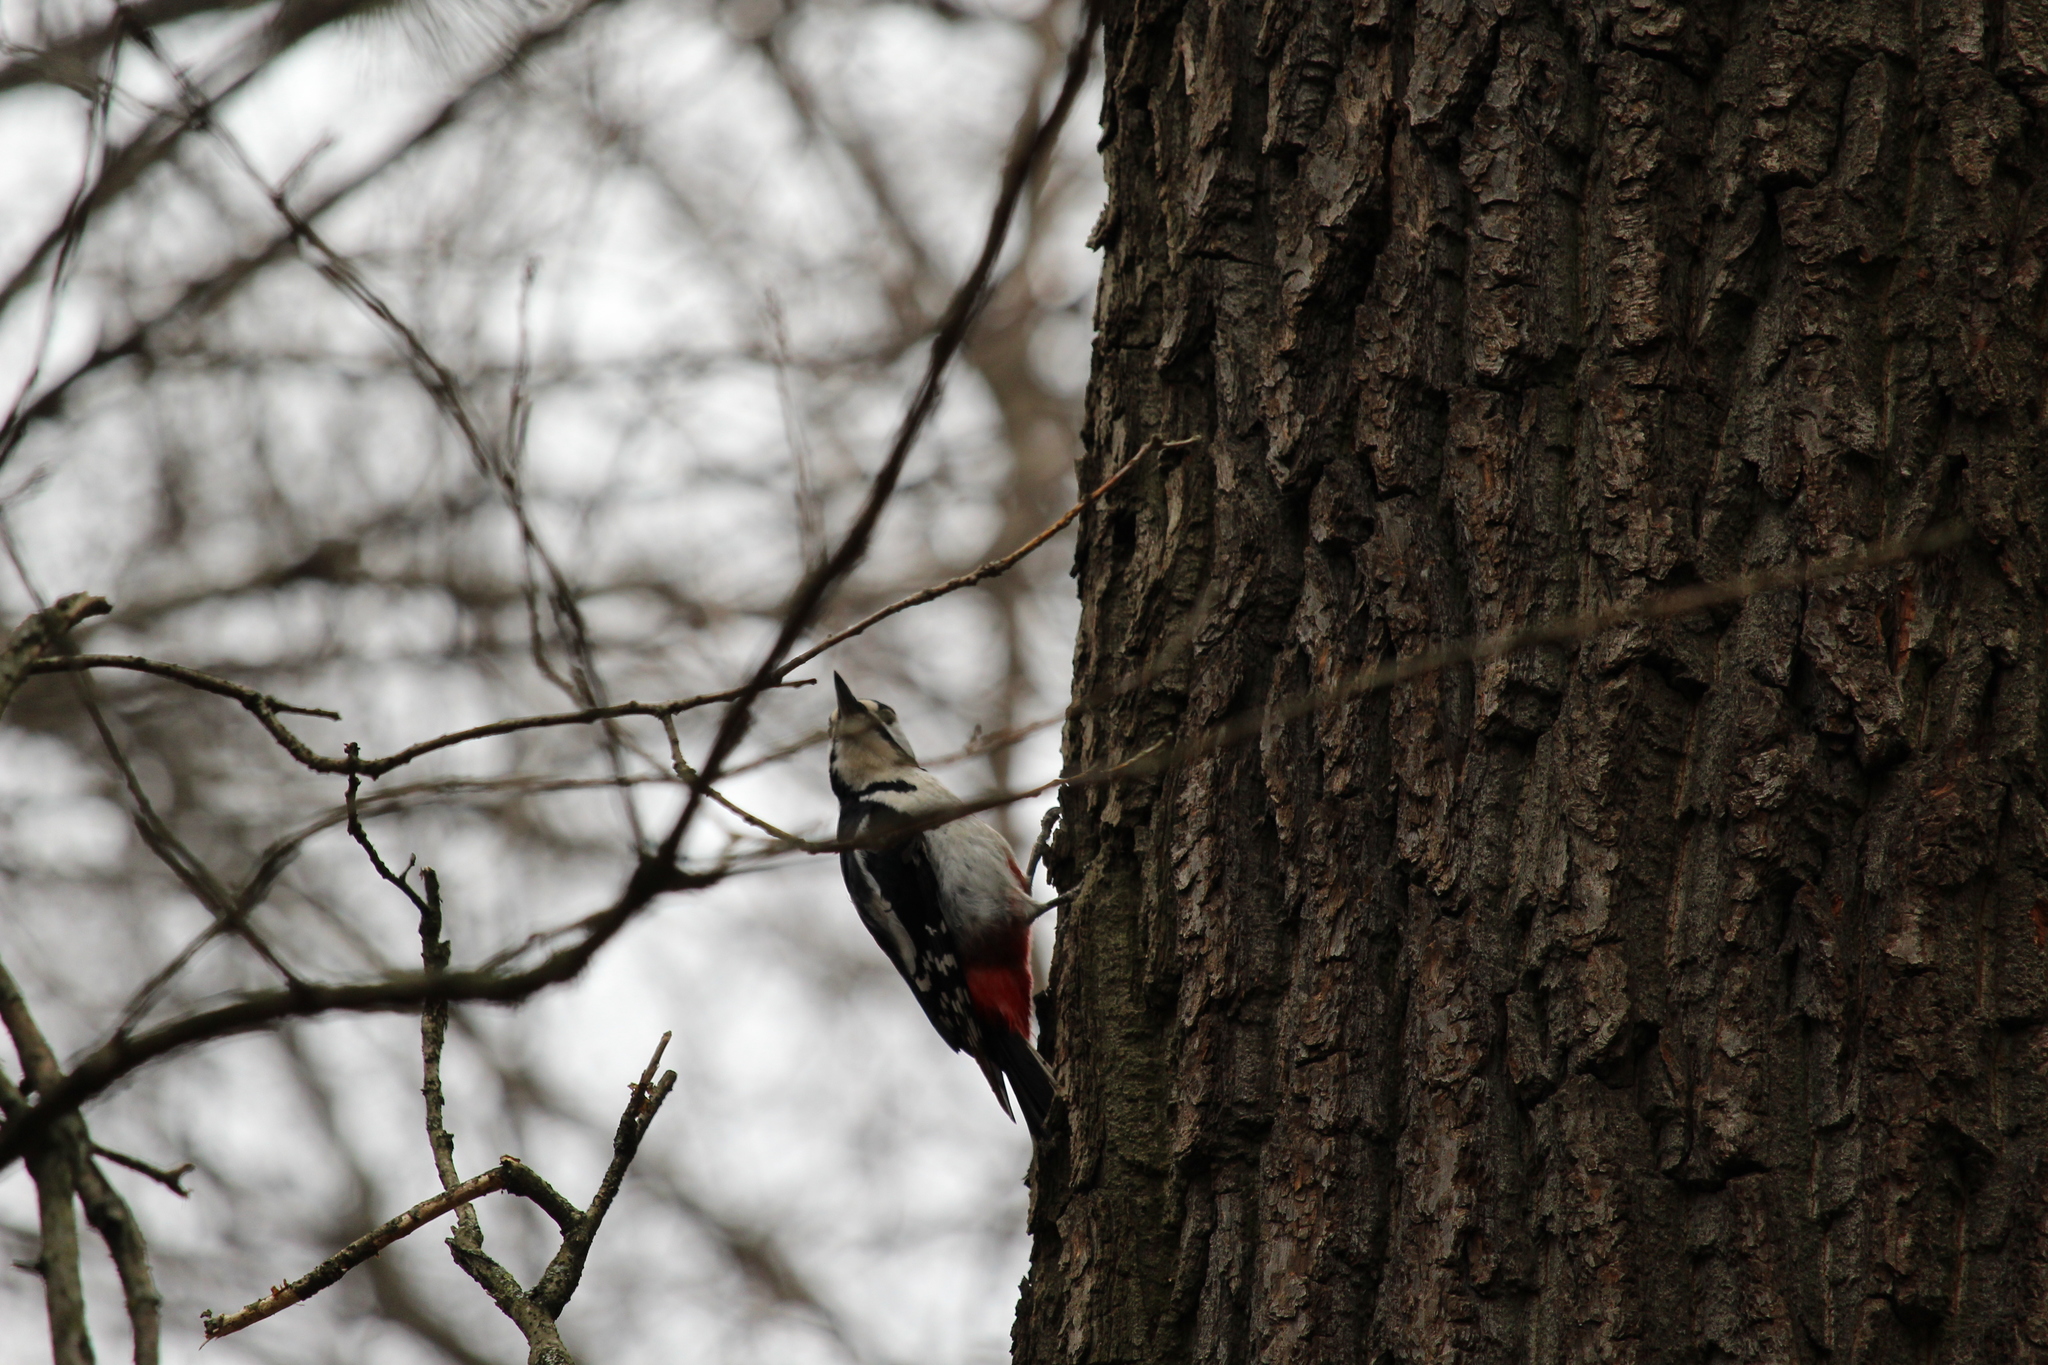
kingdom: Animalia
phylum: Chordata
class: Aves
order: Piciformes
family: Picidae
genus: Dendrocopos
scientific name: Dendrocopos major
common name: Great spotted woodpecker
